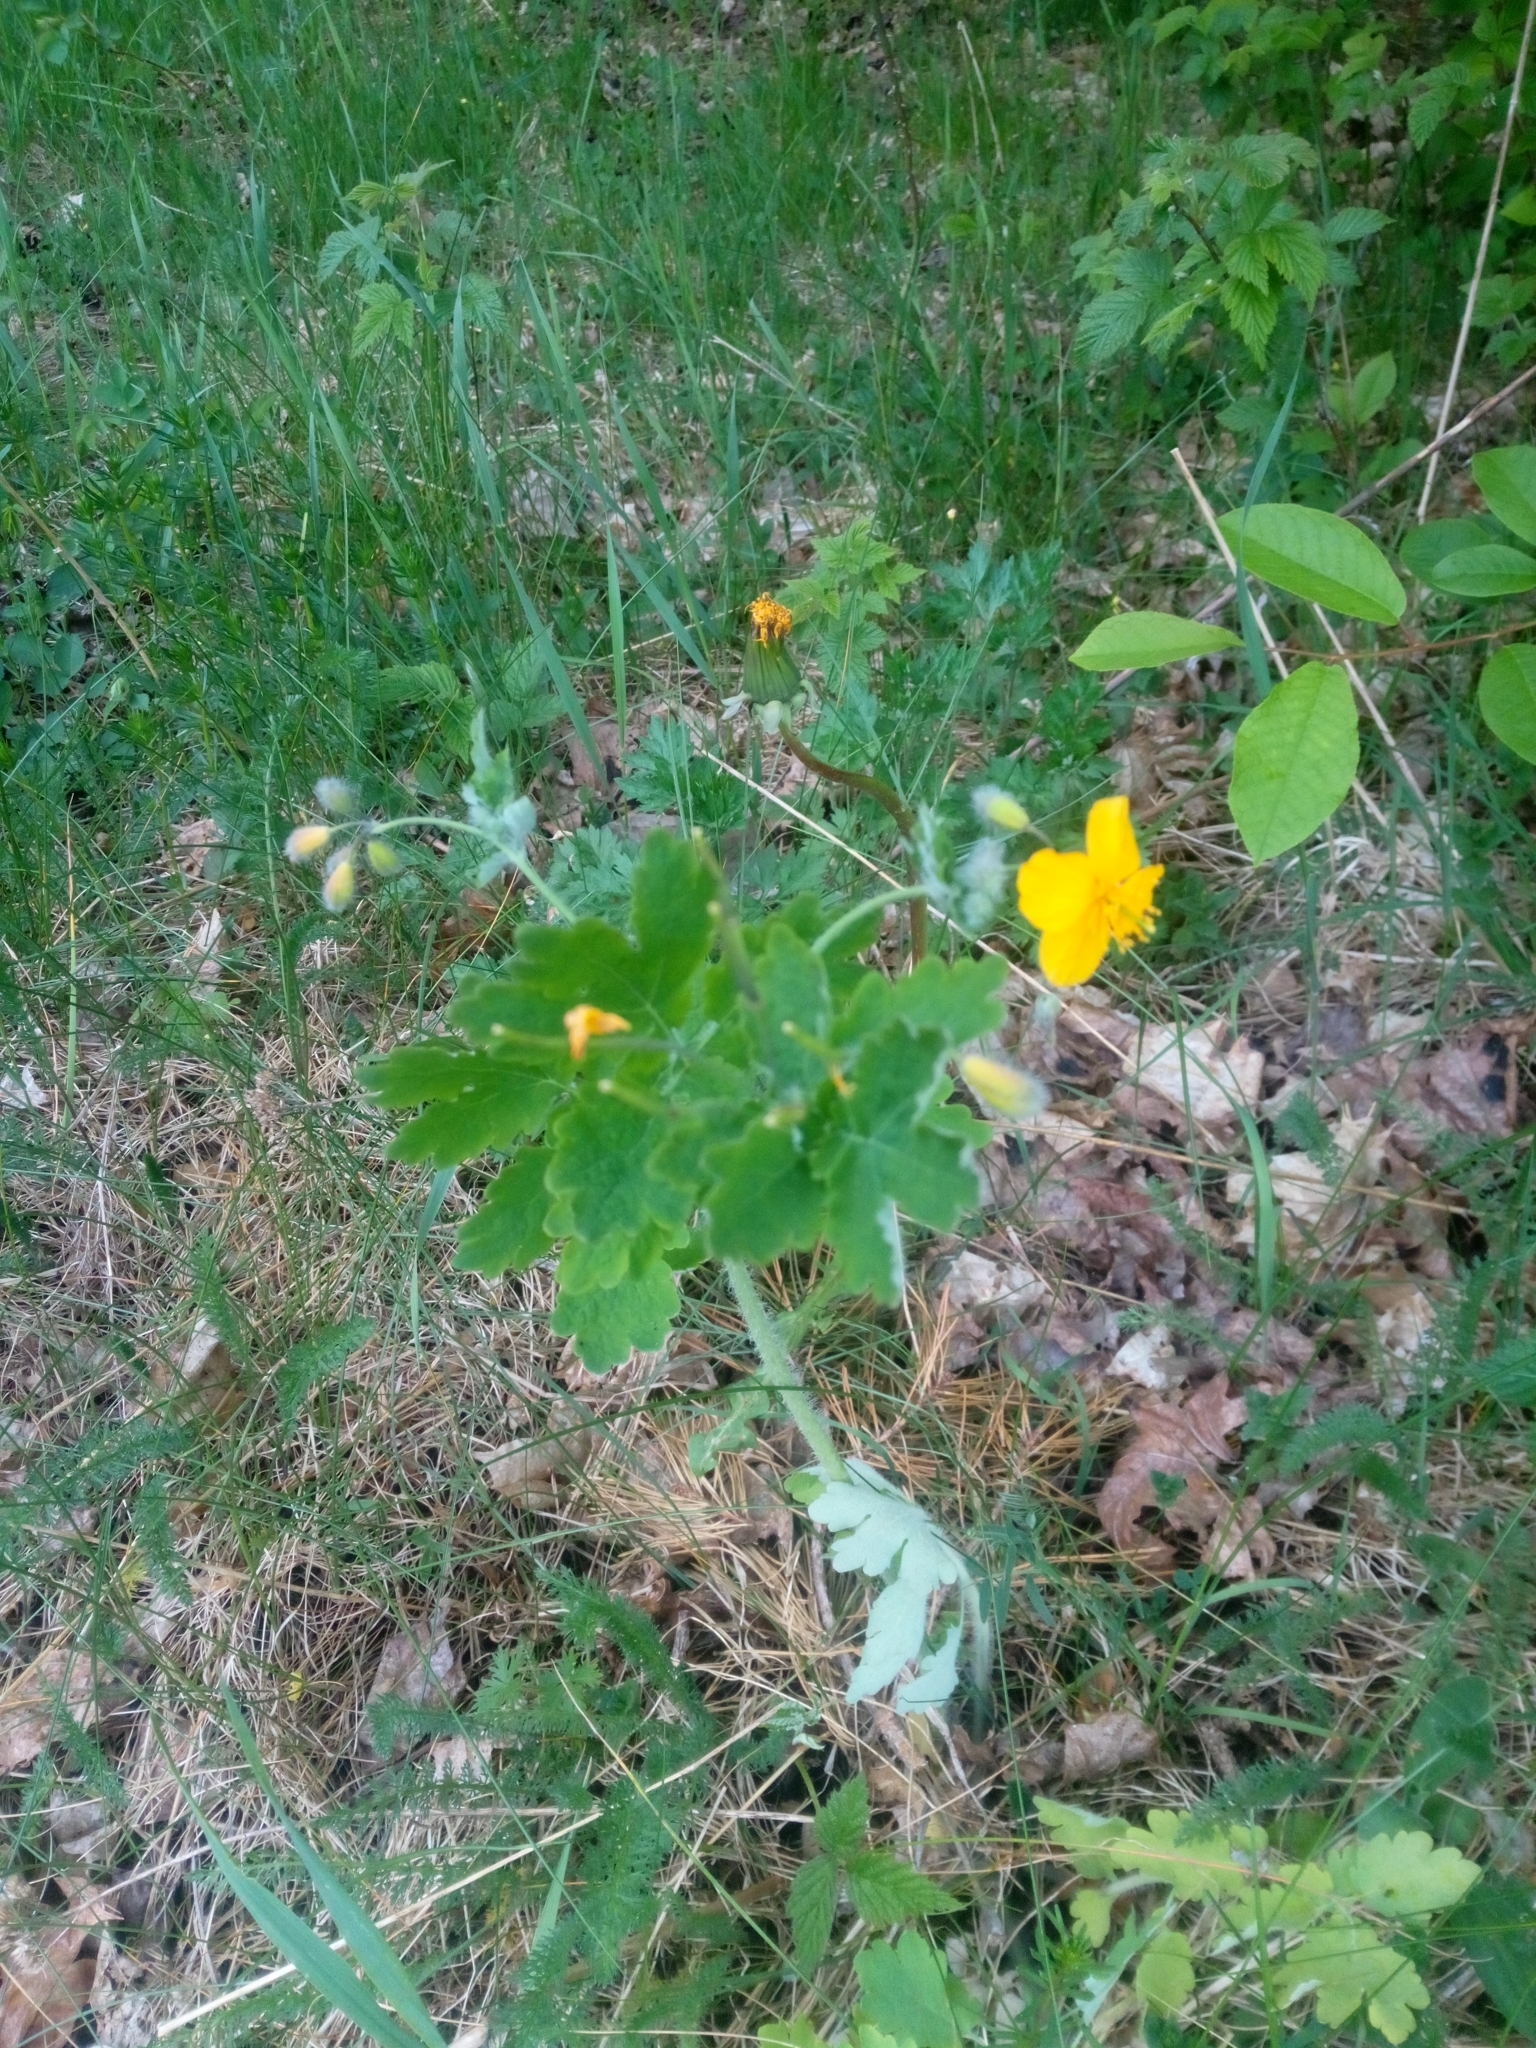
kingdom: Plantae
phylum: Tracheophyta
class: Magnoliopsida
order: Ranunculales
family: Papaveraceae
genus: Chelidonium
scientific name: Chelidonium majus
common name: Greater celandine
